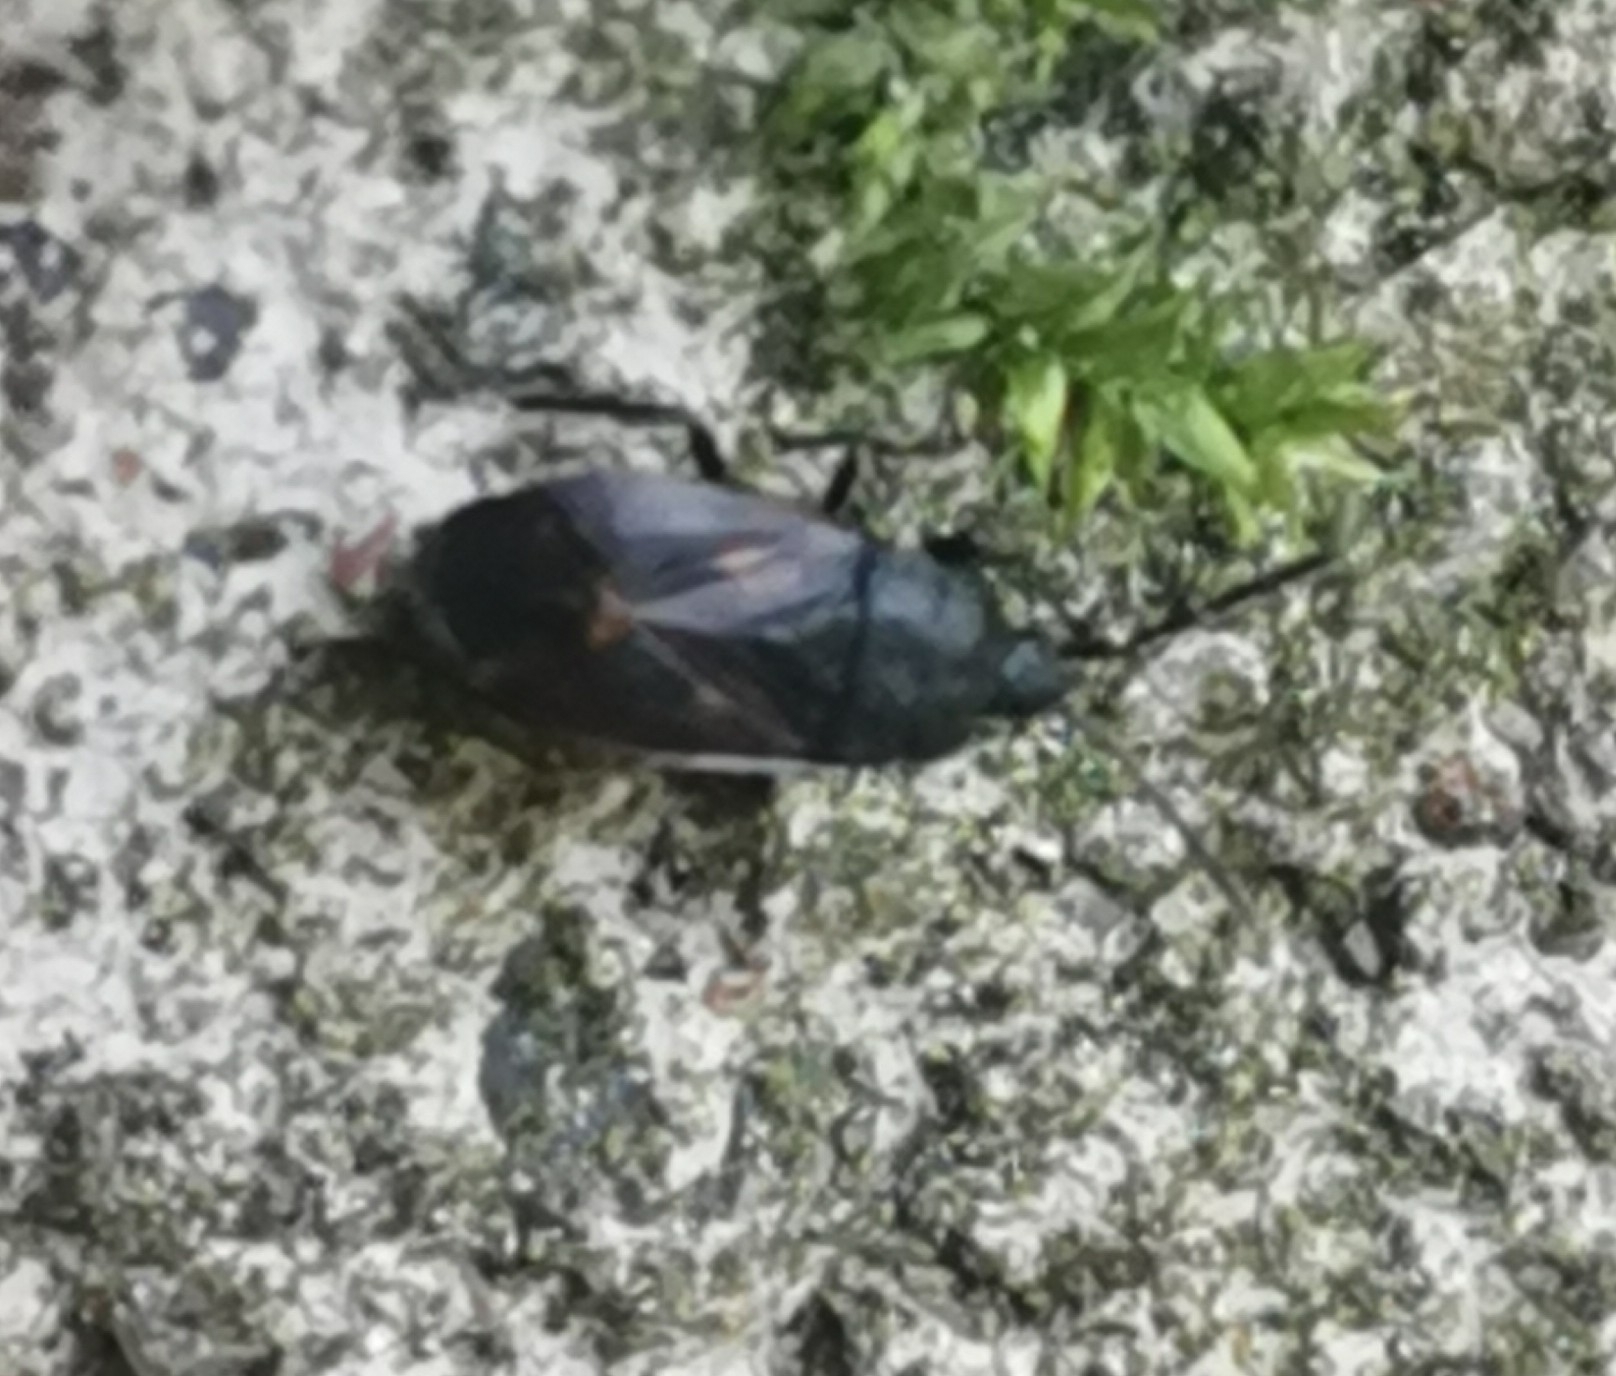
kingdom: Animalia
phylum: Arthropoda
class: Insecta
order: Hemiptera
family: Rhyparochromidae
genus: Drymus
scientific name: Drymus ryeii
